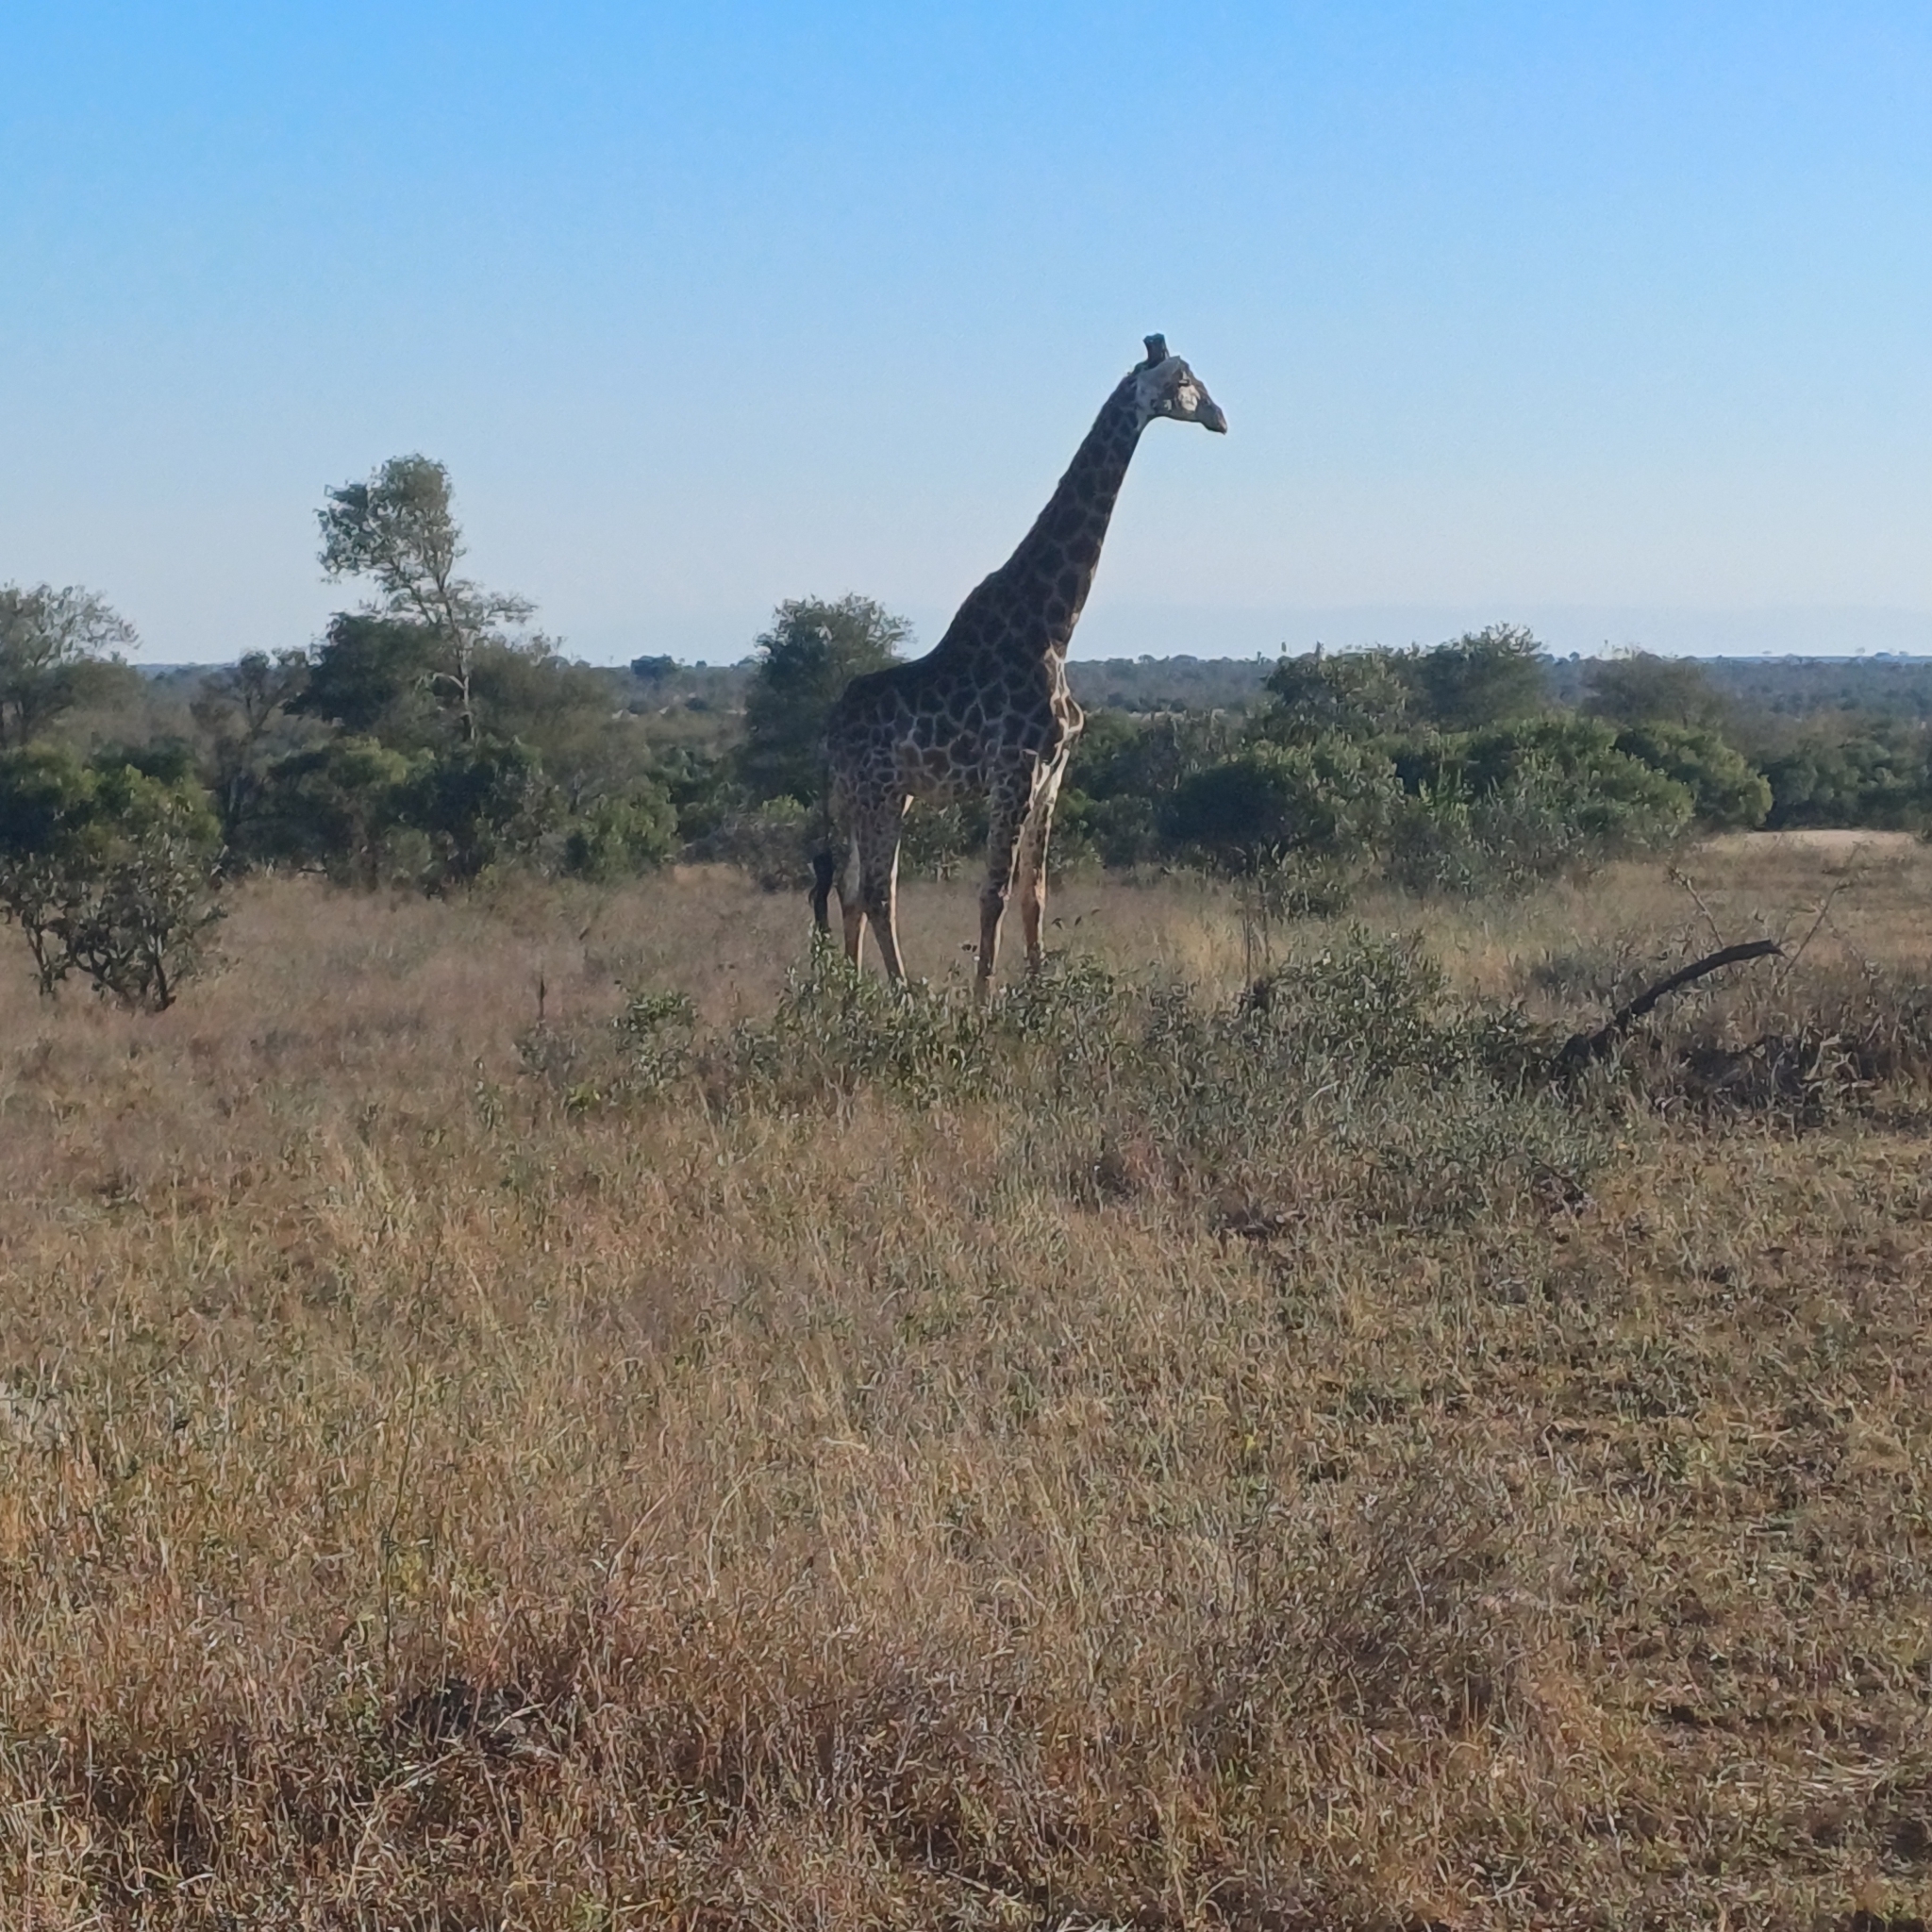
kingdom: Animalia
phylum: Chordata
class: Mammalia
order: Artiodactyla
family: Giraffidae
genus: Giraffa
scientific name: Giraffa giraffa
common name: Southern giraffe
